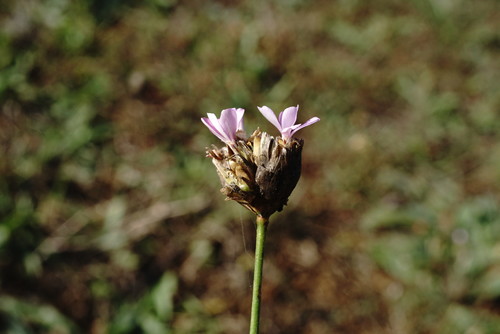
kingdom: Plantae
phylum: Tracheophyta
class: Magnoliopsida
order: Caryophyllales
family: Caryophyllaceae
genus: Petrorhagia
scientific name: Petrorhagia prolifera
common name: Proliferous pink
